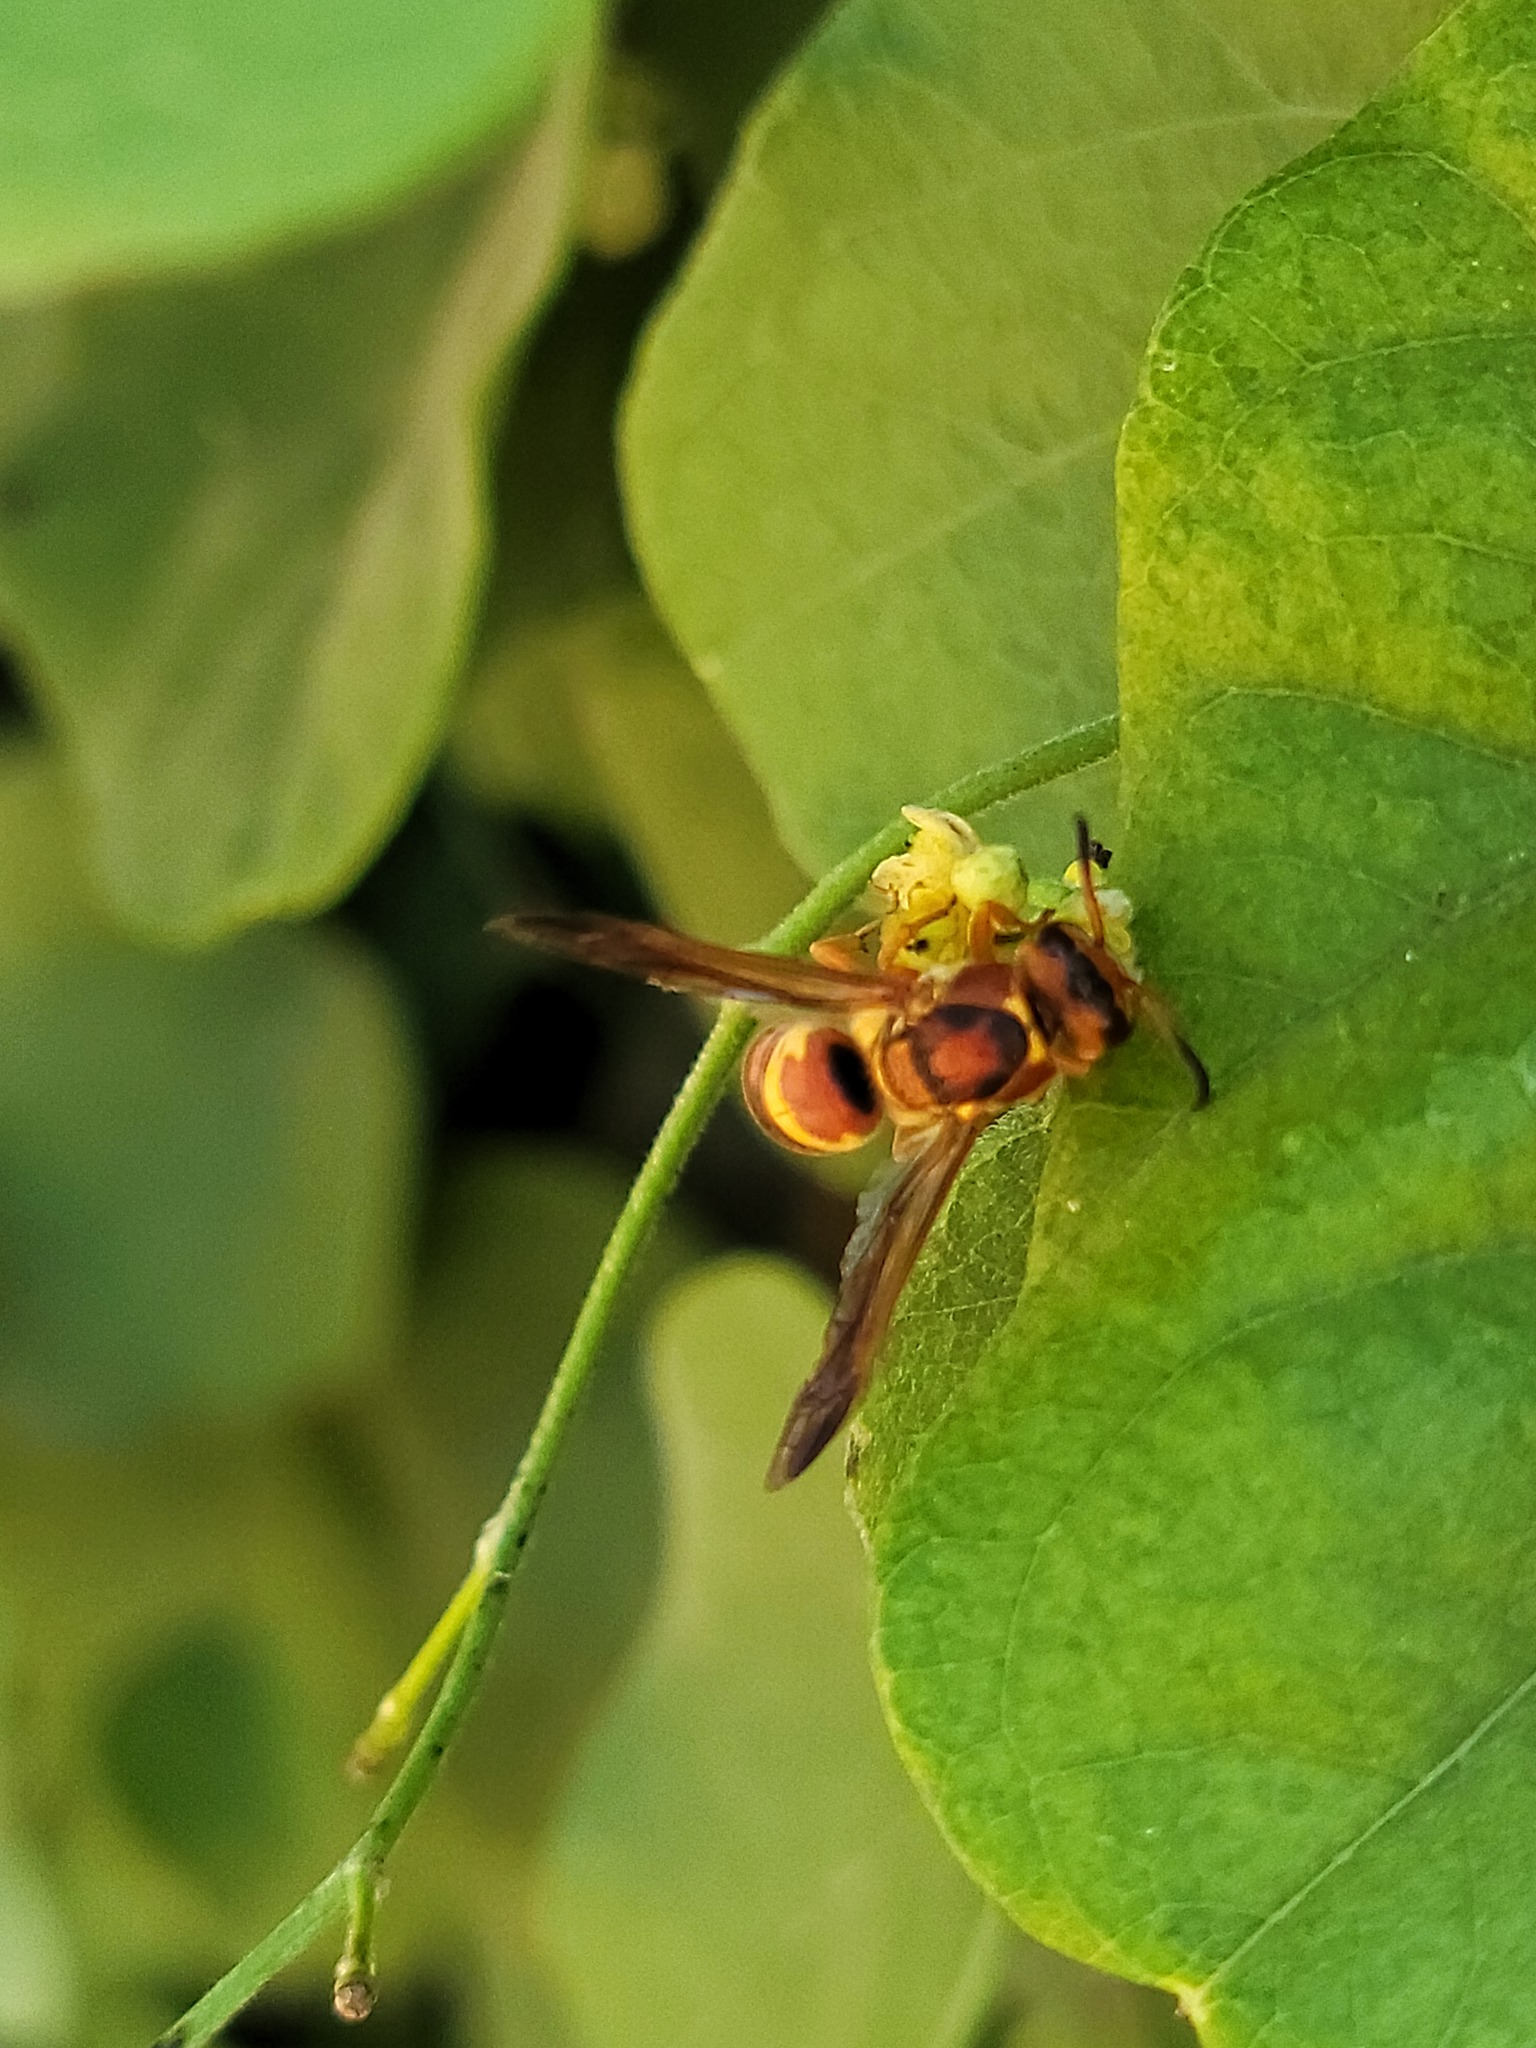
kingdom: Animalia
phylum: Arthropoda
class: Insecta
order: Hymenoptera
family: Eumenidae
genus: Euodynerus
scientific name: Euodynerus pratensis
